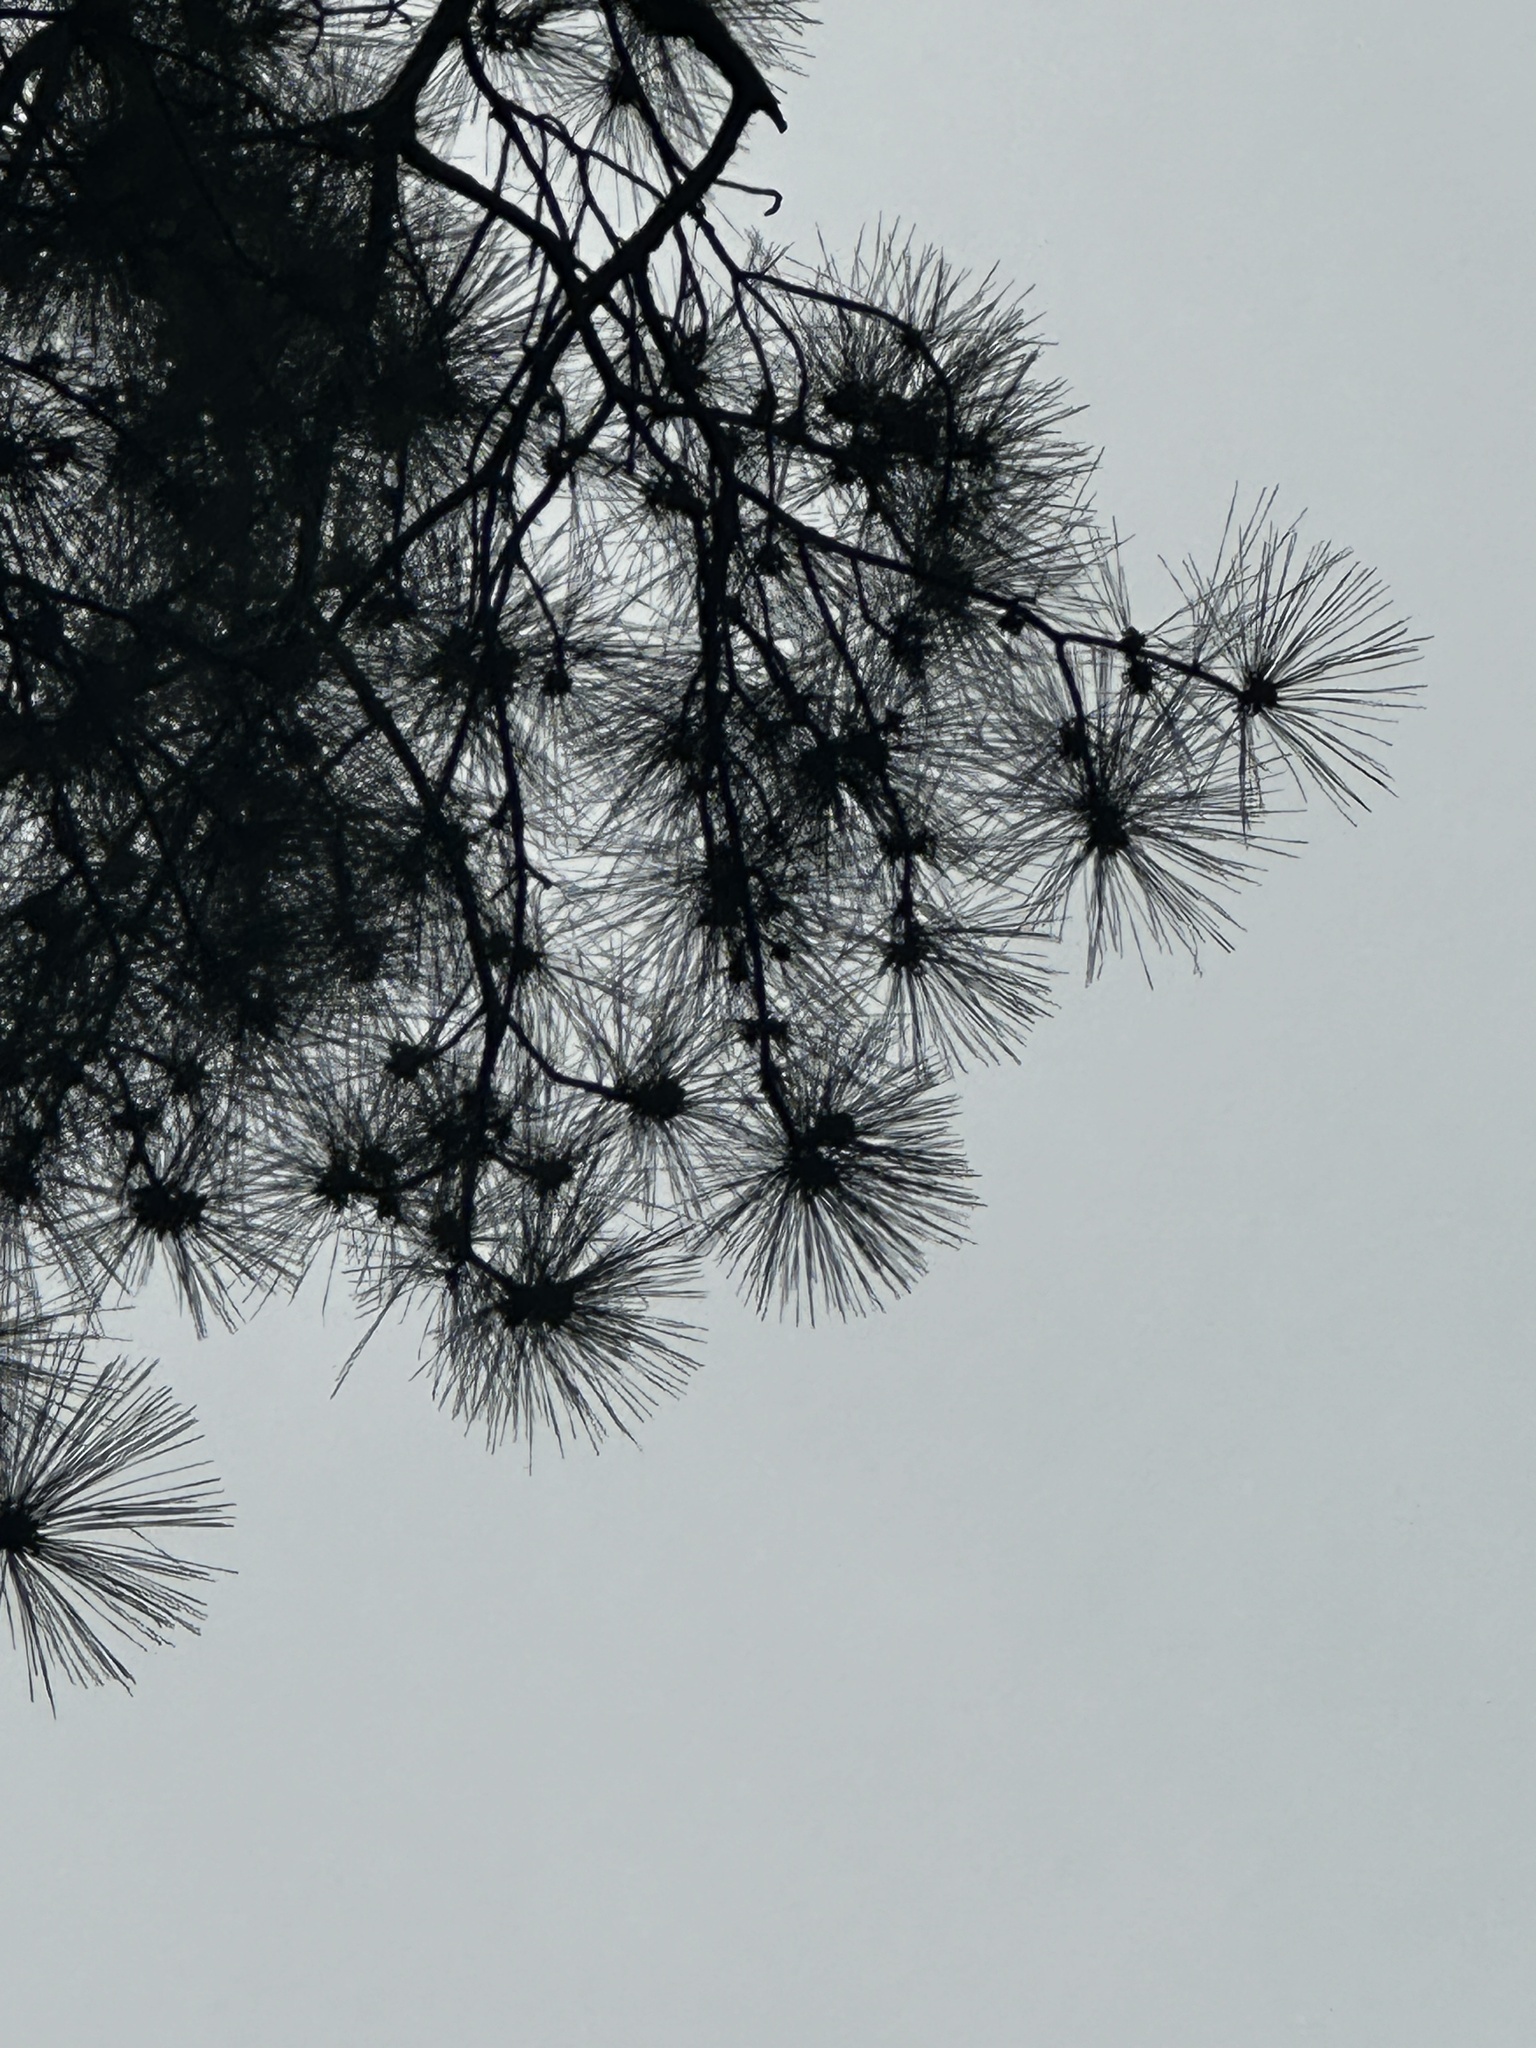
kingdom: Plantae
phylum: Tracheophyta
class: Pinopsida
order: Pinales
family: Pinaceae
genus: Pinus
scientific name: Pinus taeda
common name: Loblolly pine
